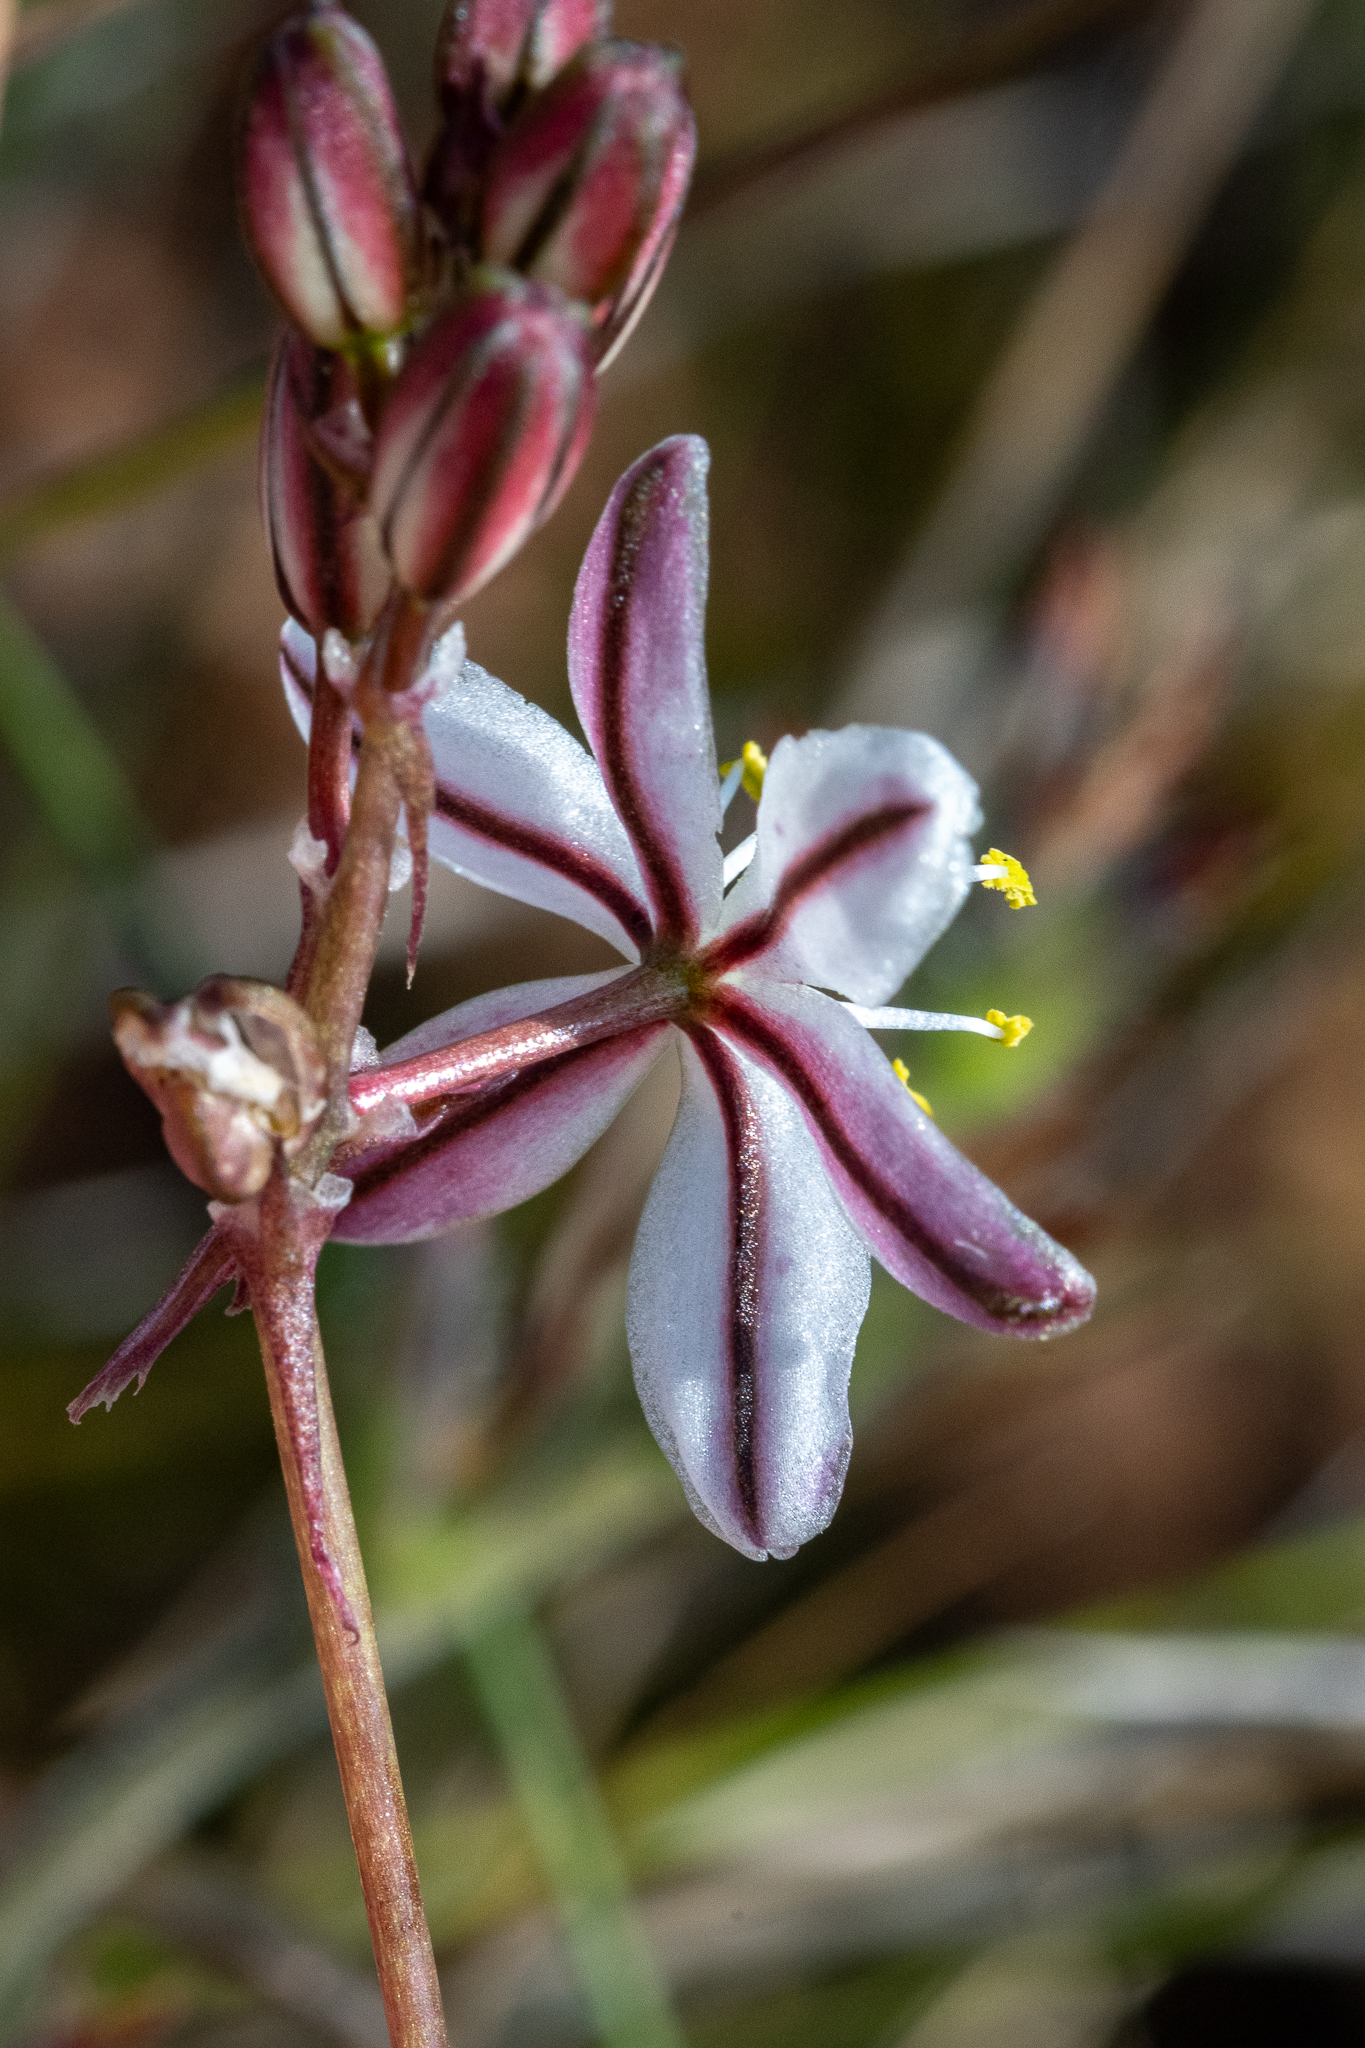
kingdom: Plantae
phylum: Tracheophyta
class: Liliopsida
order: Asparagales
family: Asparagaceae
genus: Drimia
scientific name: Drimia exuviata
